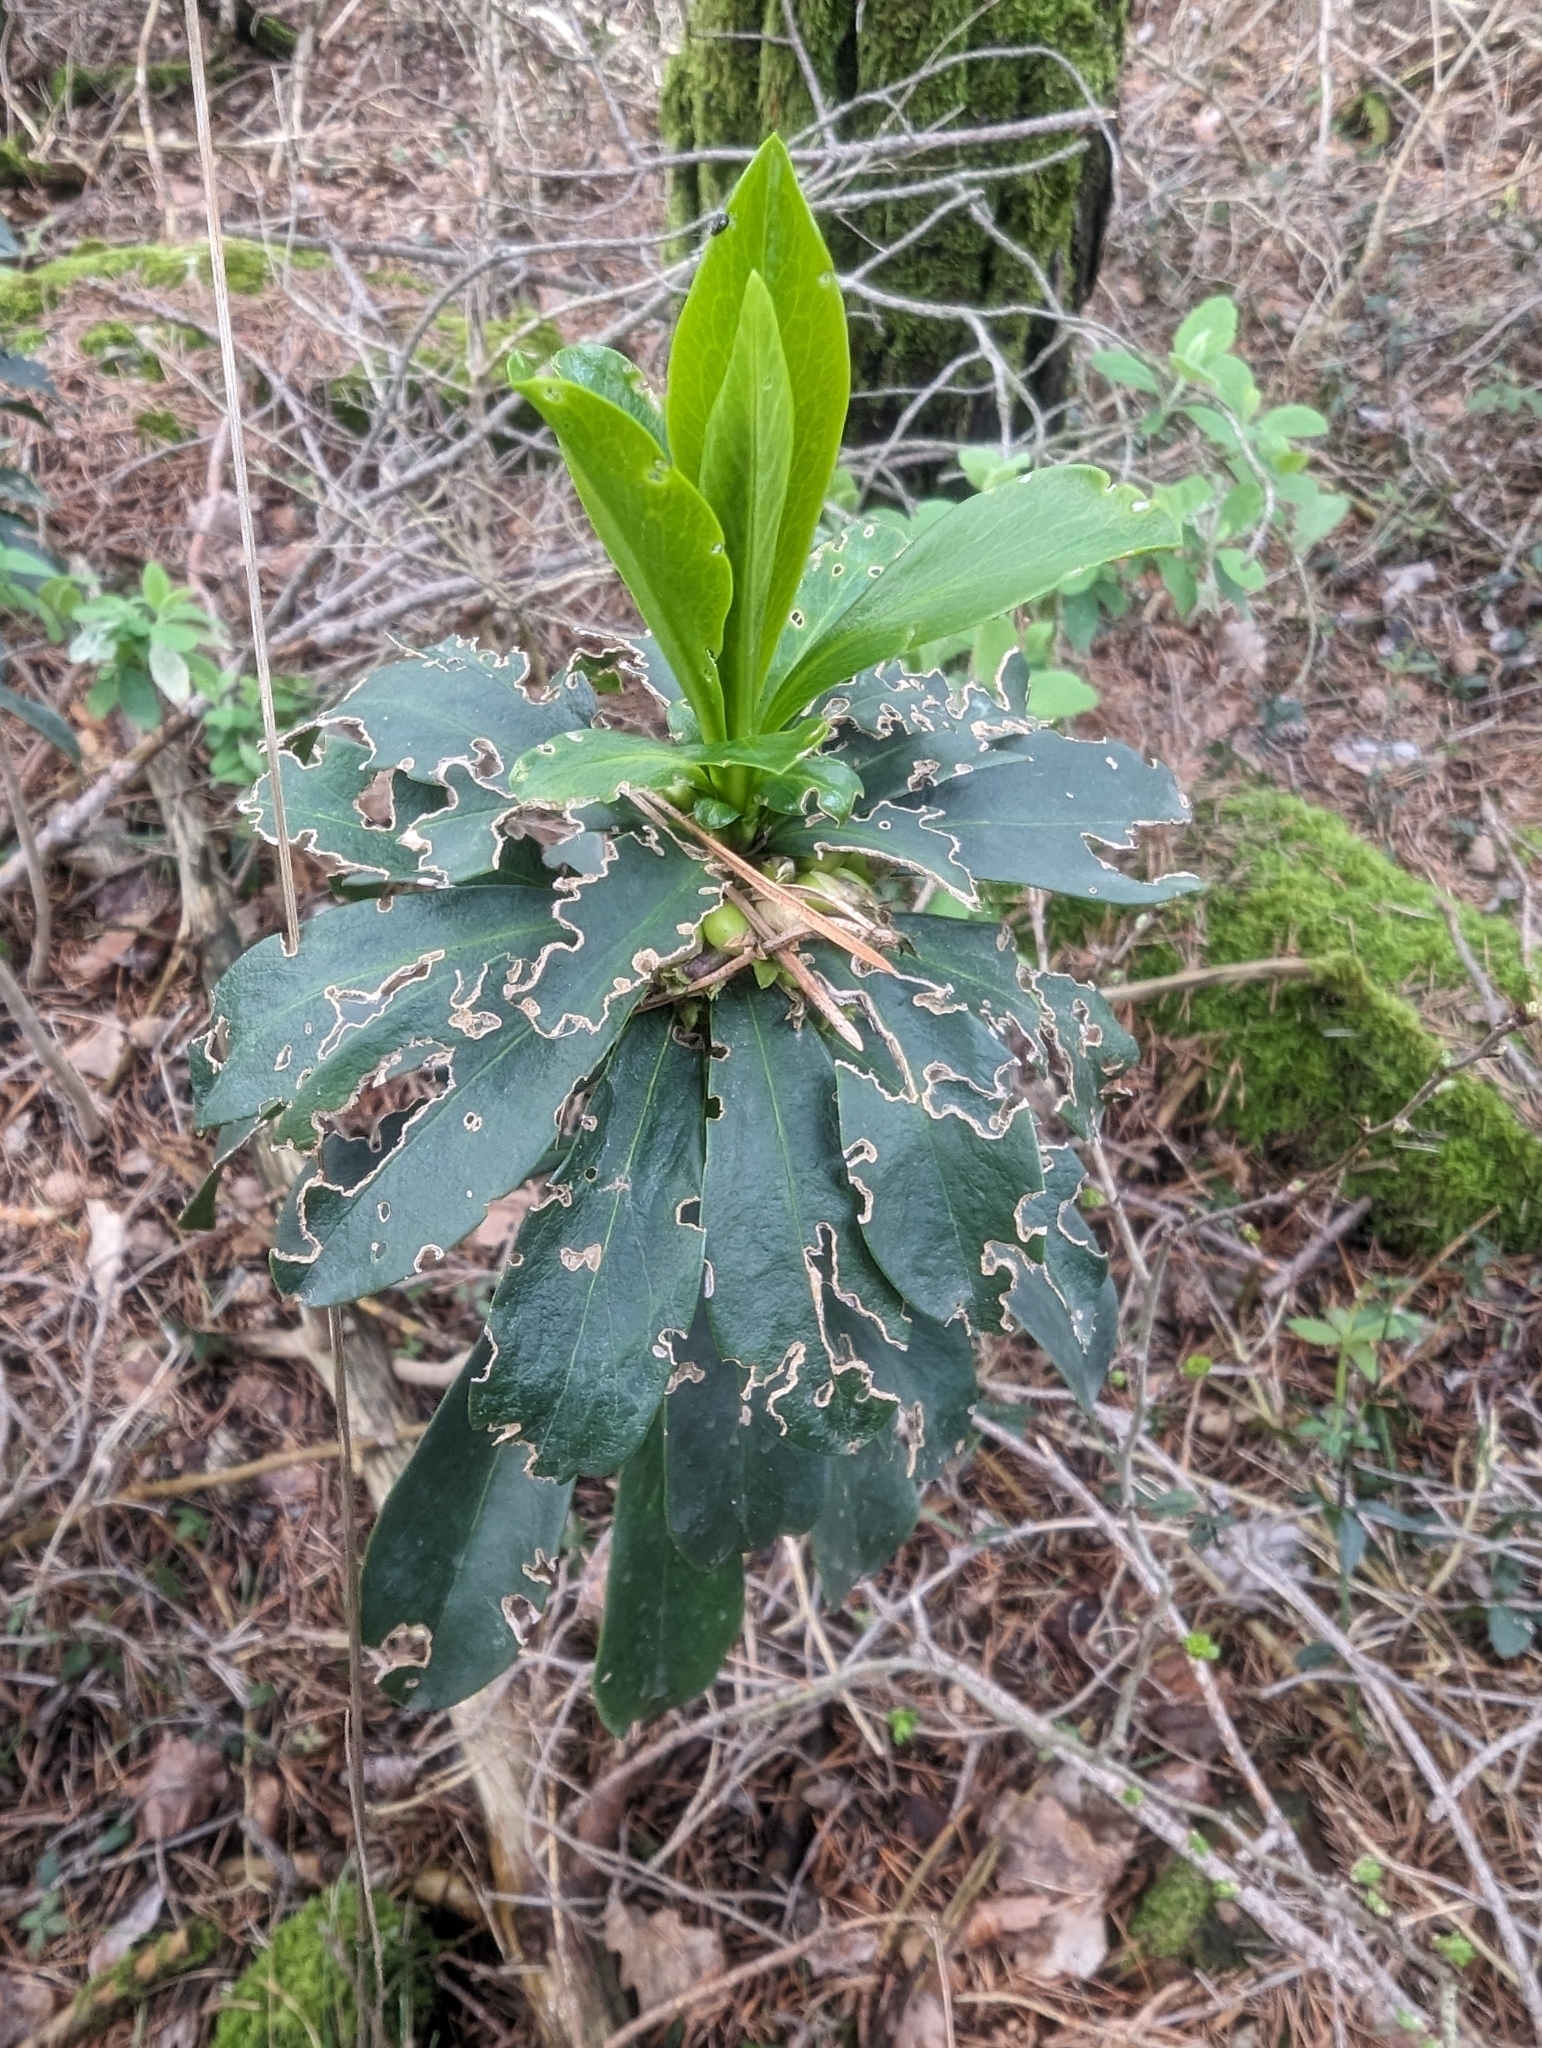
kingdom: Plantae
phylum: Tracheophyta
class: Magnoliopsida
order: Malvales
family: Thymelaeaceae
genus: Daphne
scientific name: Daphne laureola
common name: Spurge-laurel
